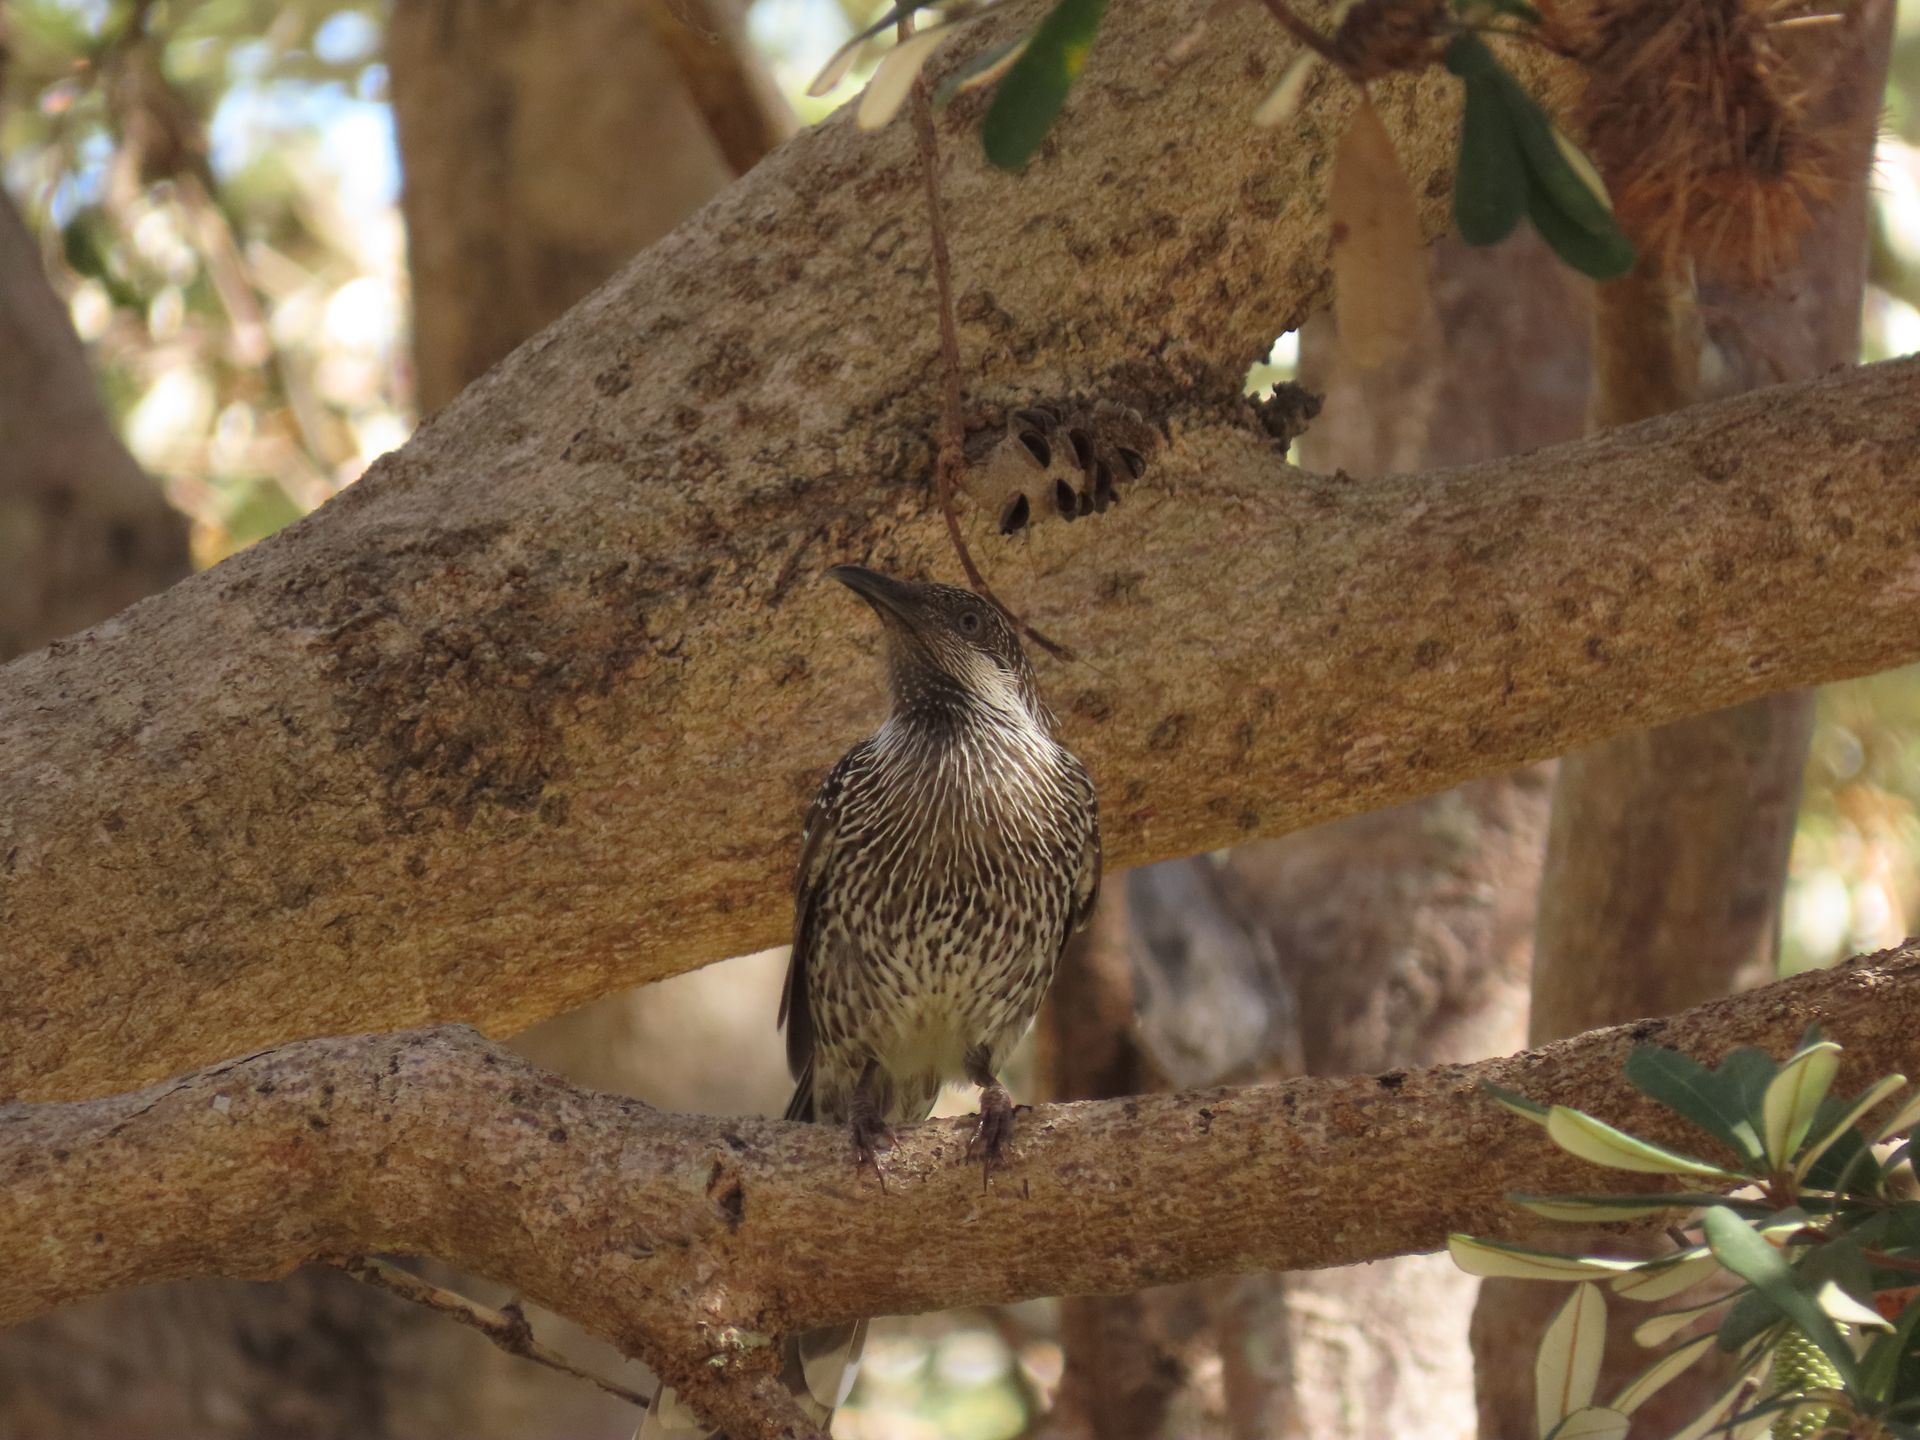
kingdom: Animalia
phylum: Chordata
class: Aves
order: Passeriformes
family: Meliphagidae
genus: Anthochaera
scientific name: Anthochaera chrysoptera
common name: Little wattlebird
